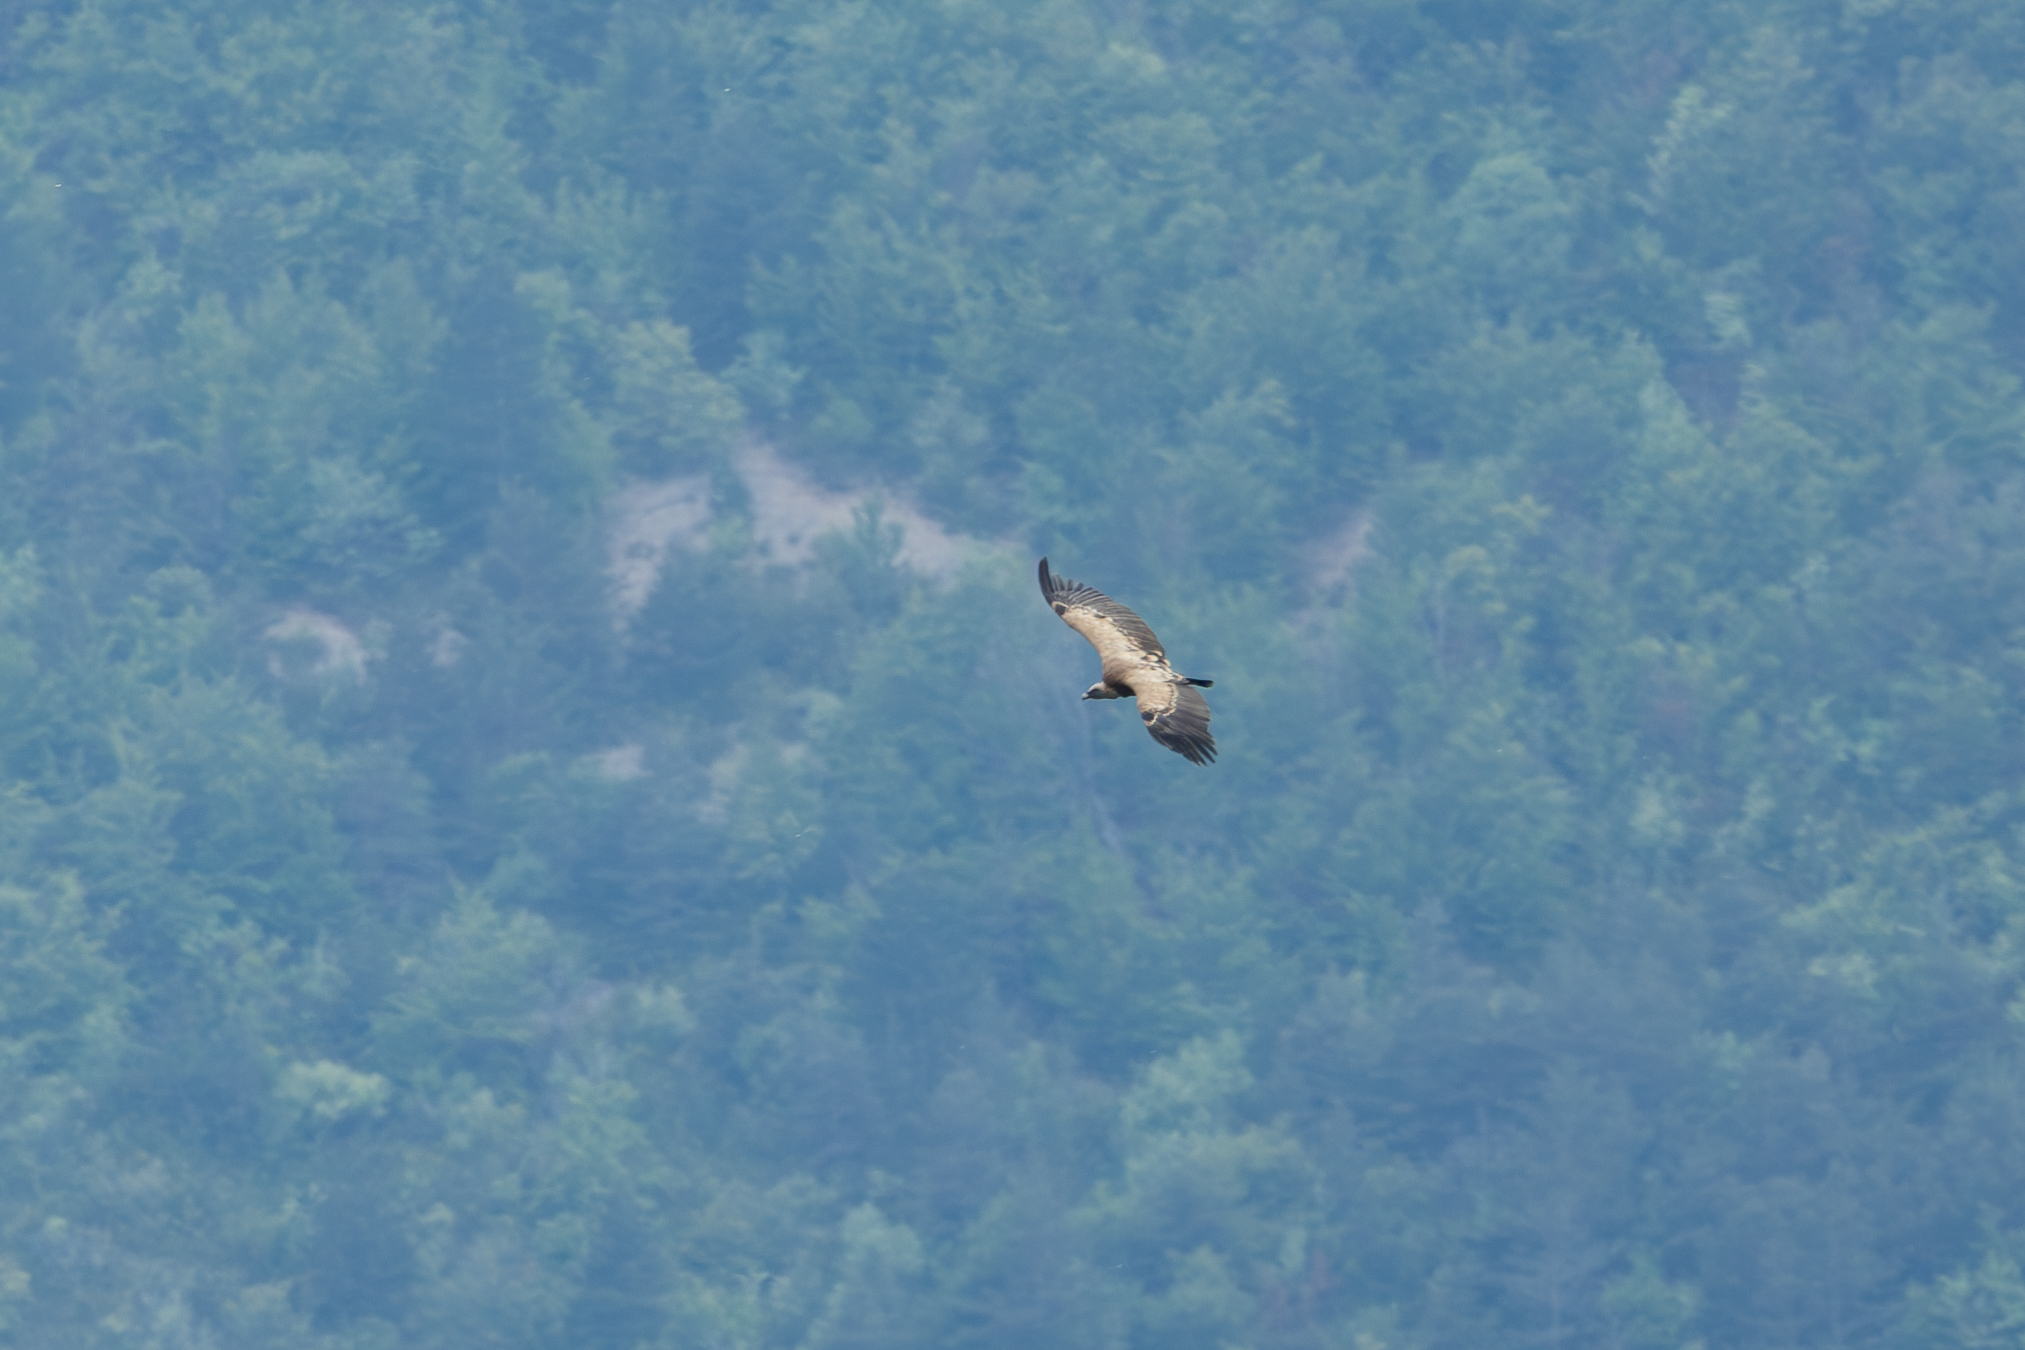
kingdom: Animalia
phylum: Chordata
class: Aves
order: Accipitriformes
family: Accipitridae
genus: Gyps
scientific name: Gyps fulvus
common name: Griffon vulture
